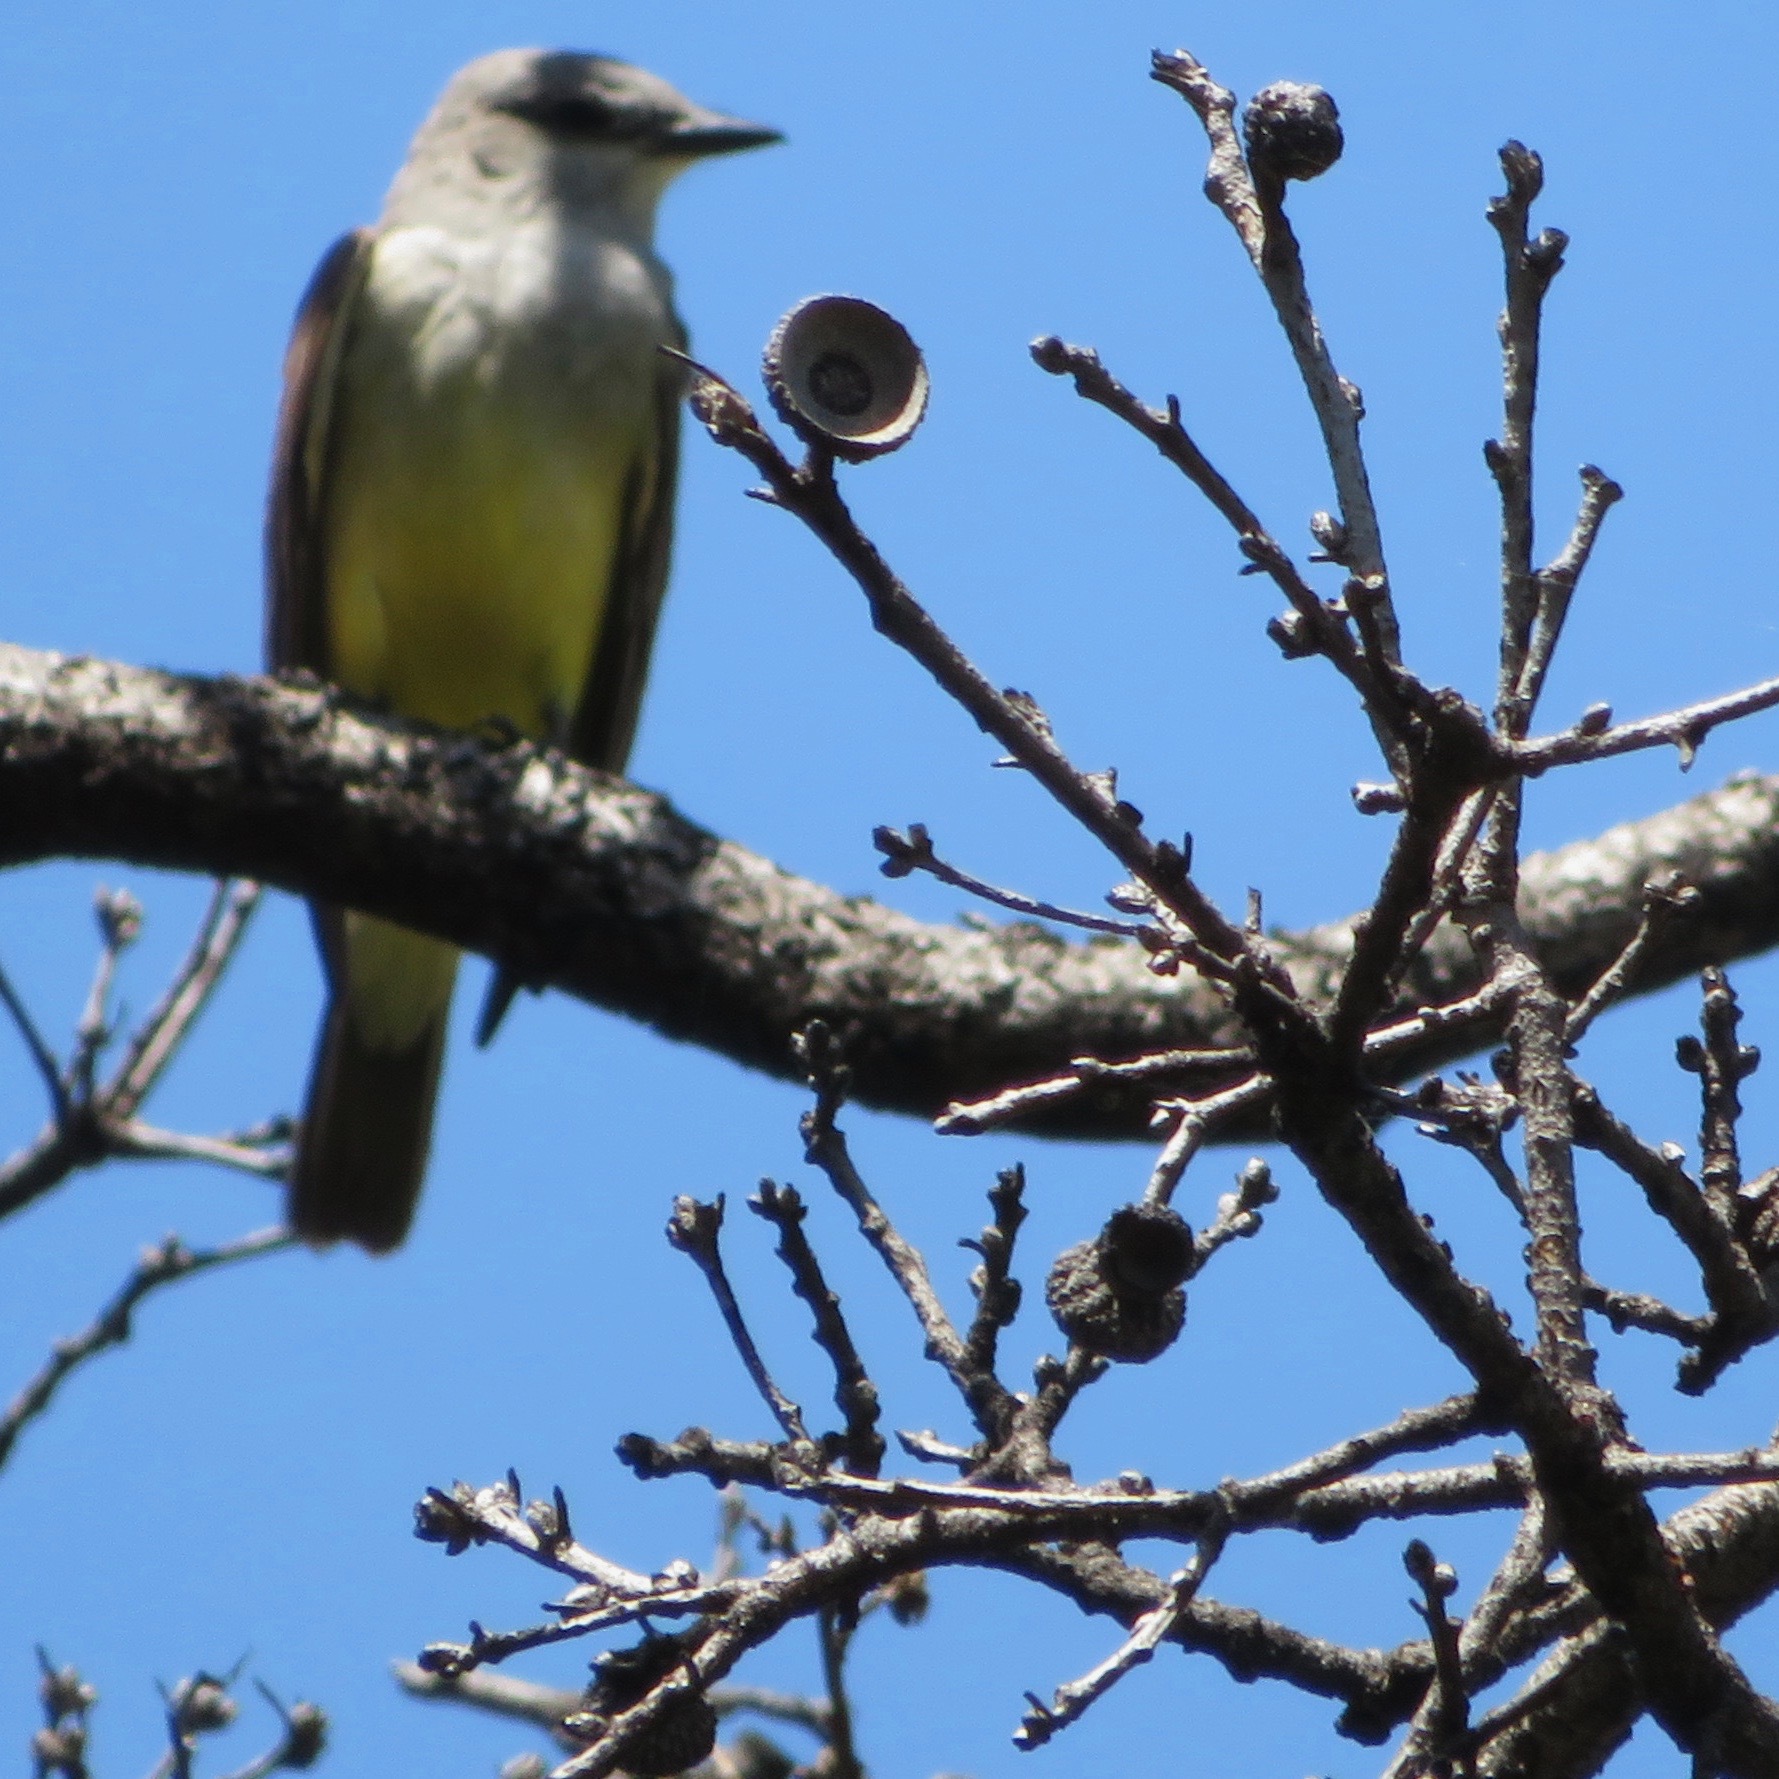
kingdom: Animalia
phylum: Chordata
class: Aves
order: Passeriformes
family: Tyrannidae
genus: Tyrannus
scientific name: Tyrannus verticalis
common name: Western kingbird
